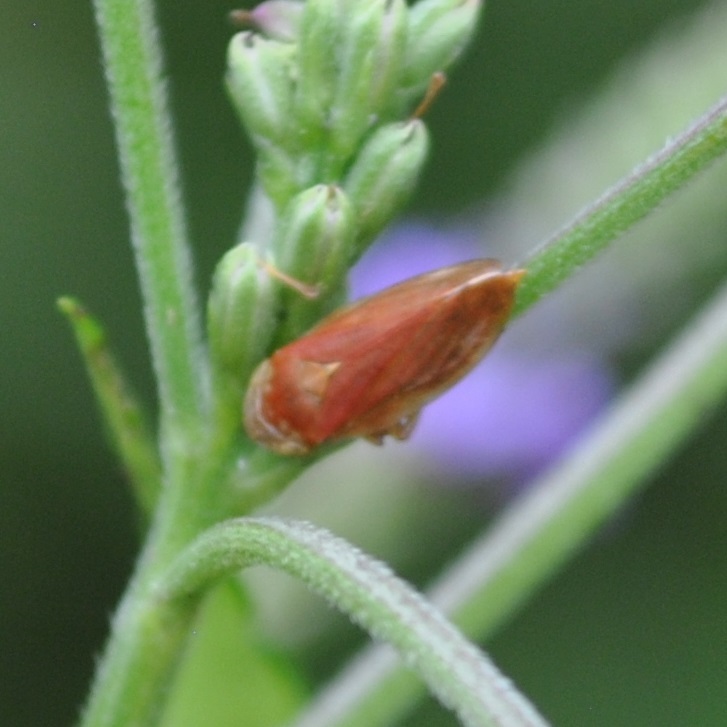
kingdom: Animalia
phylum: Arthropoda
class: Insecta
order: Hemiptera
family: Aphrophoridae
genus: Philaenus
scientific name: Philaenus spumarius
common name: Meadow spittlebug
